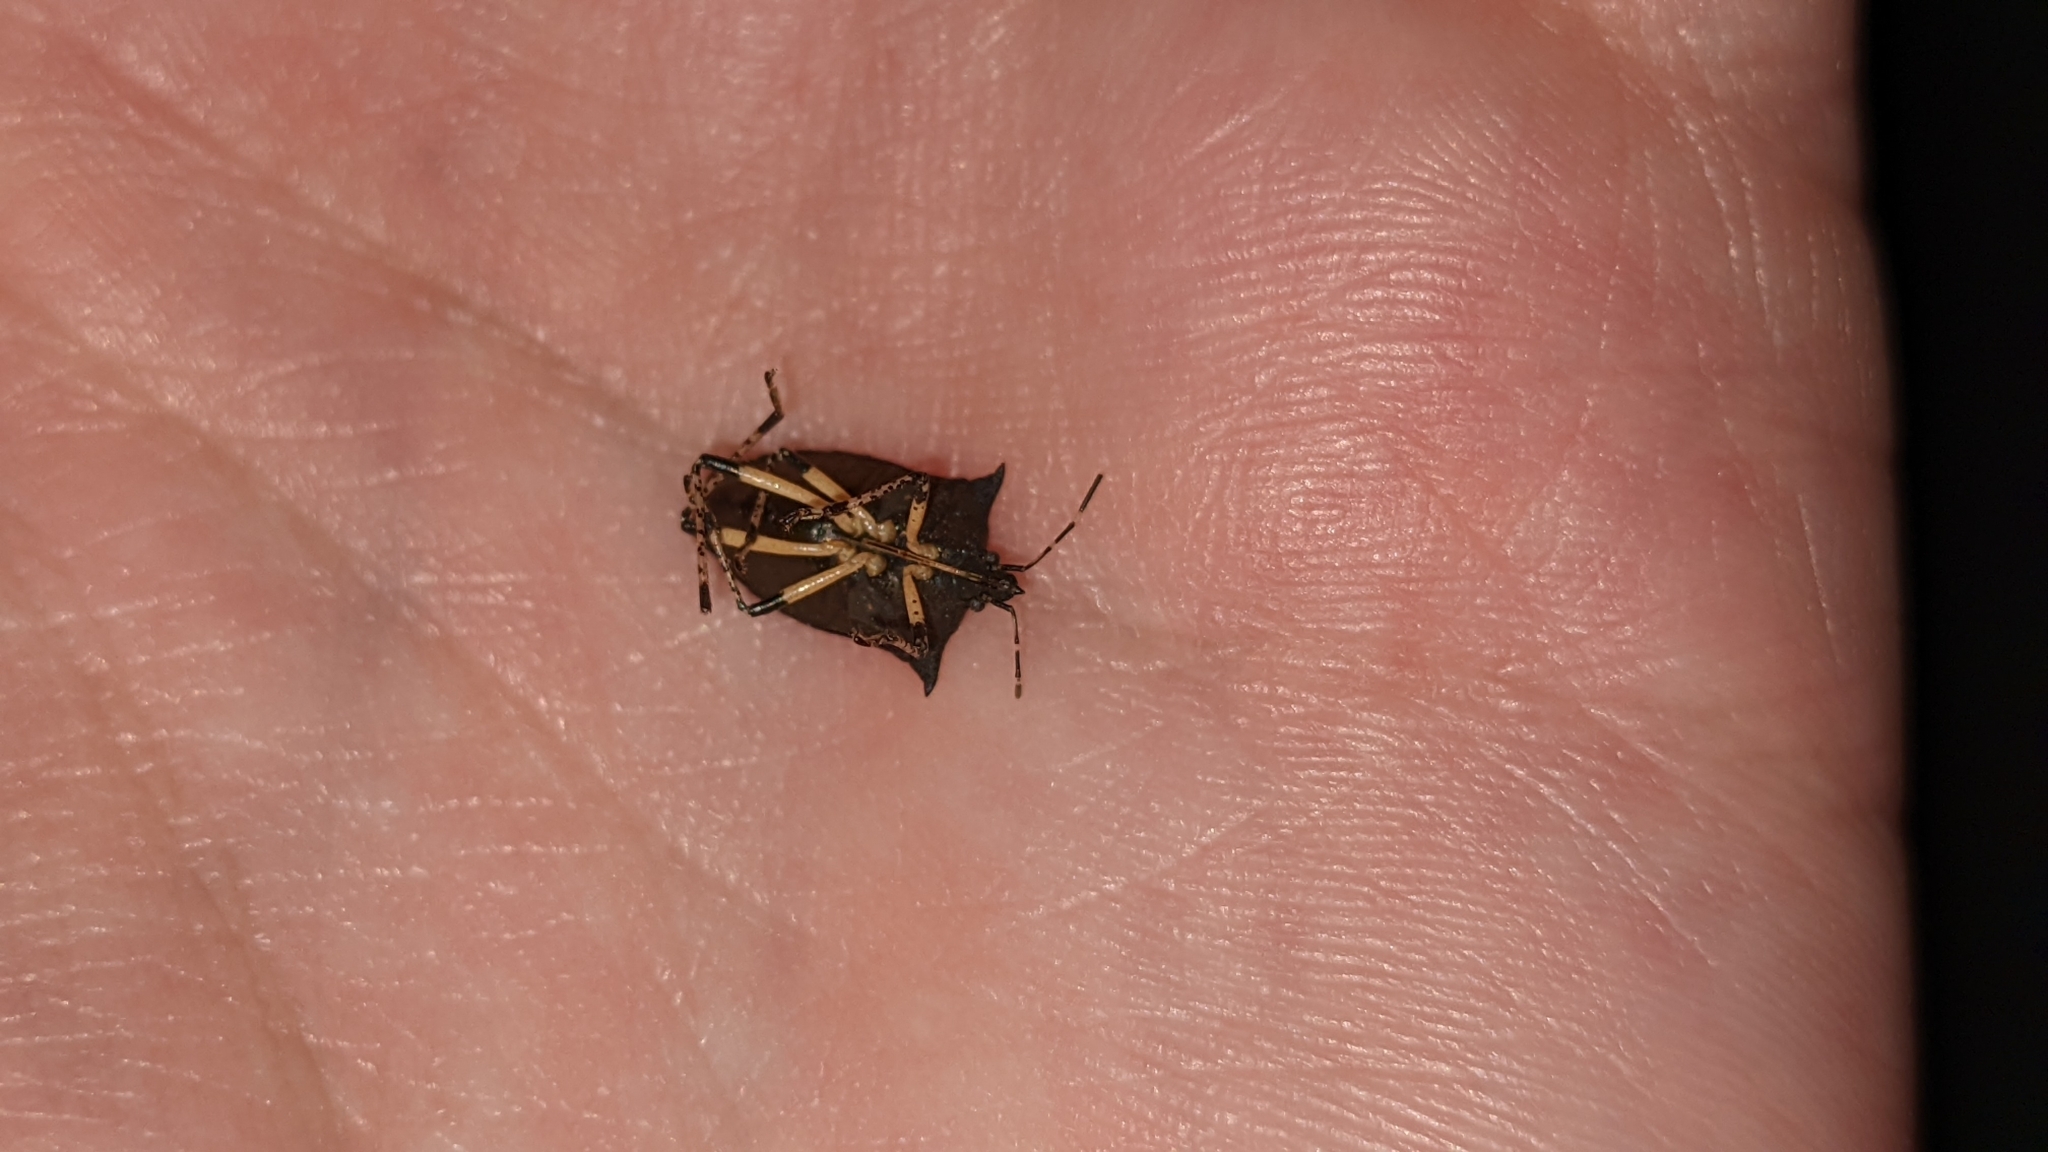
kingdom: Animalia
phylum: Arthropoda
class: Insecta
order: Hemiptera
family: Pentatomidae
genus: Proxys
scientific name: Proxys punctulatus
